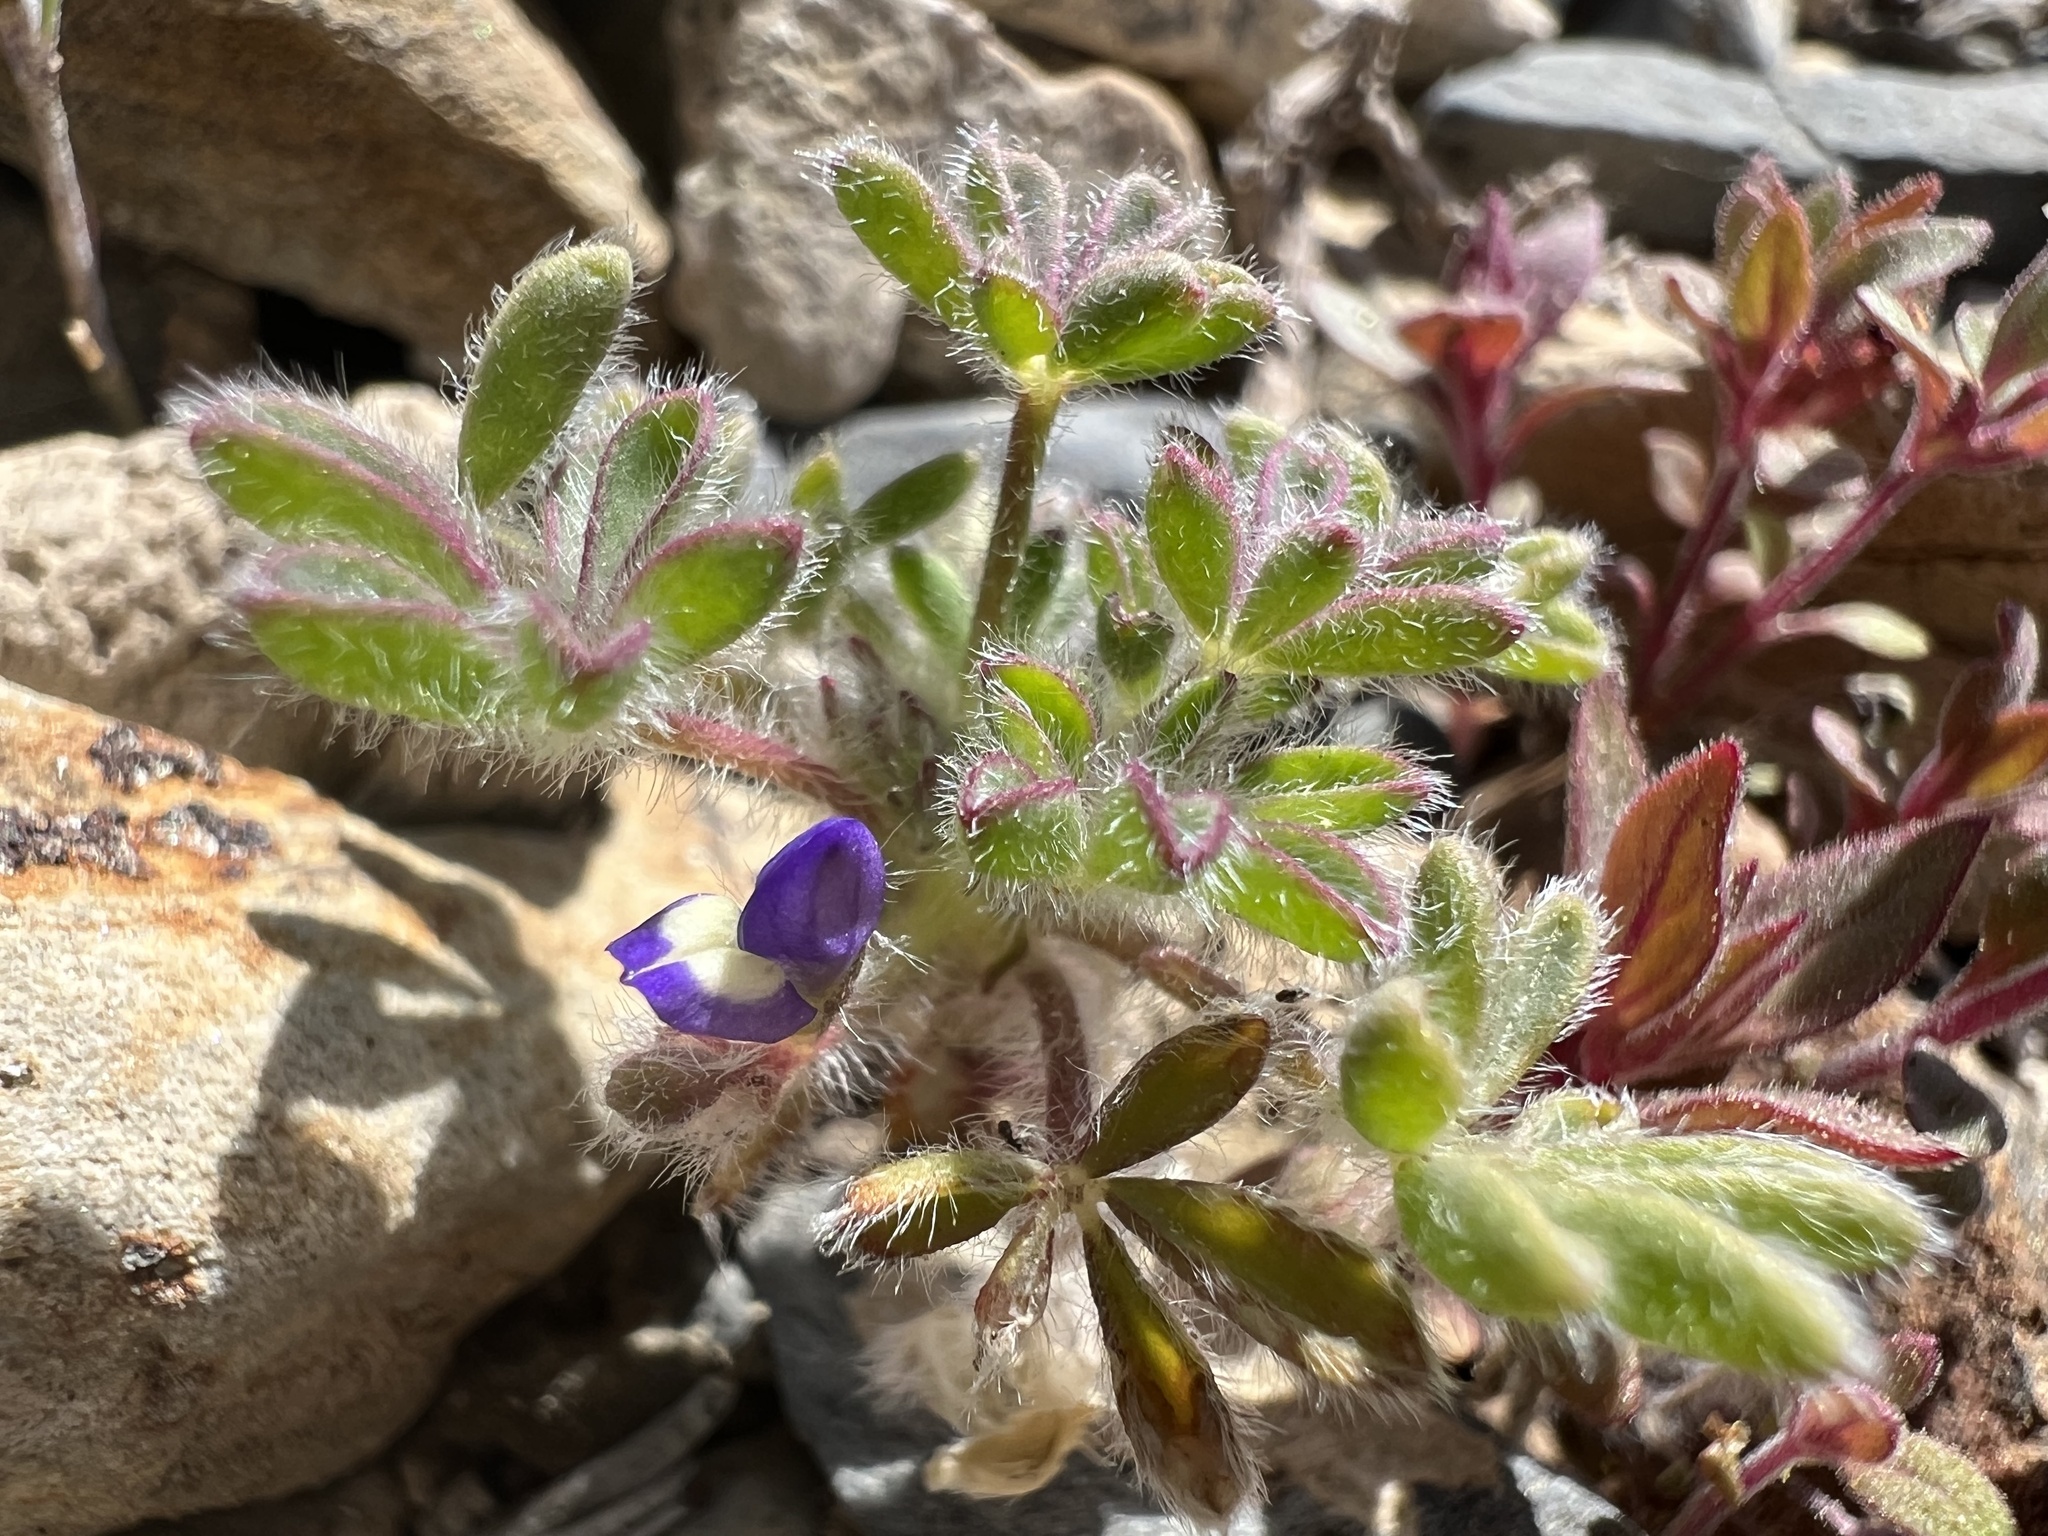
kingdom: Plantae
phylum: Tracheophyta
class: Magnoliopsida
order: Fabales
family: Fabaceae
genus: Lupinus
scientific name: Lupinus brevicaulis
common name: Sand lupine
